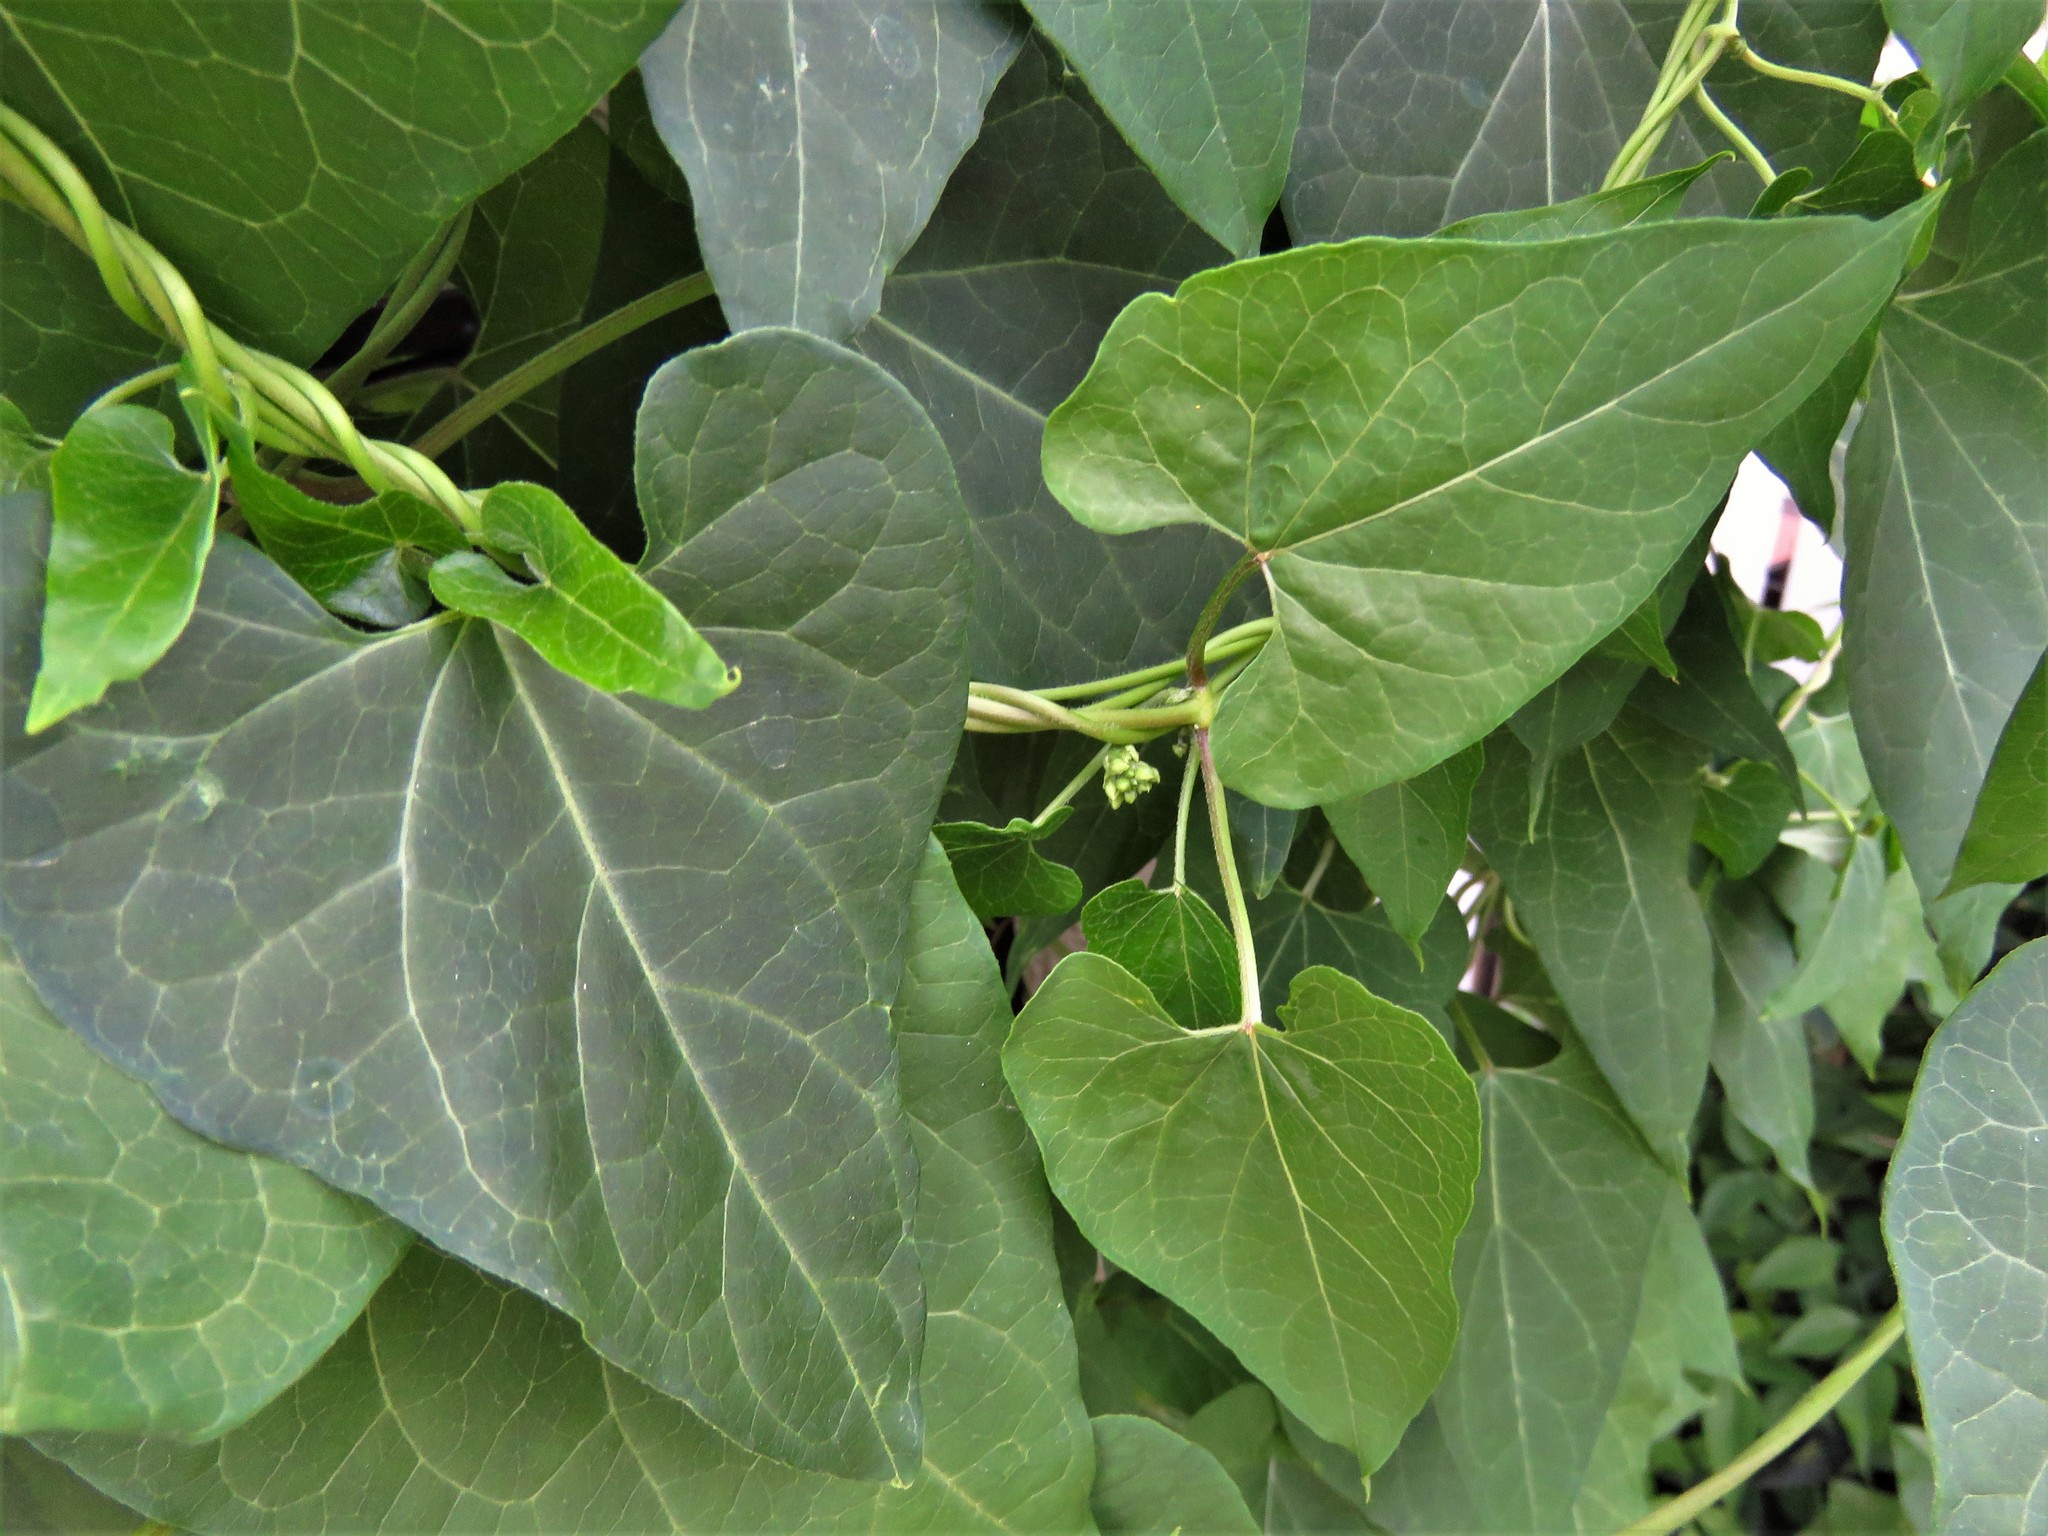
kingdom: Plantae
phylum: Tracheophyta
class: Magnoliopsida
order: Gentianales
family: Apocynaceae
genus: Cynanchum
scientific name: Cynanchum laeve
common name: Sandvine
